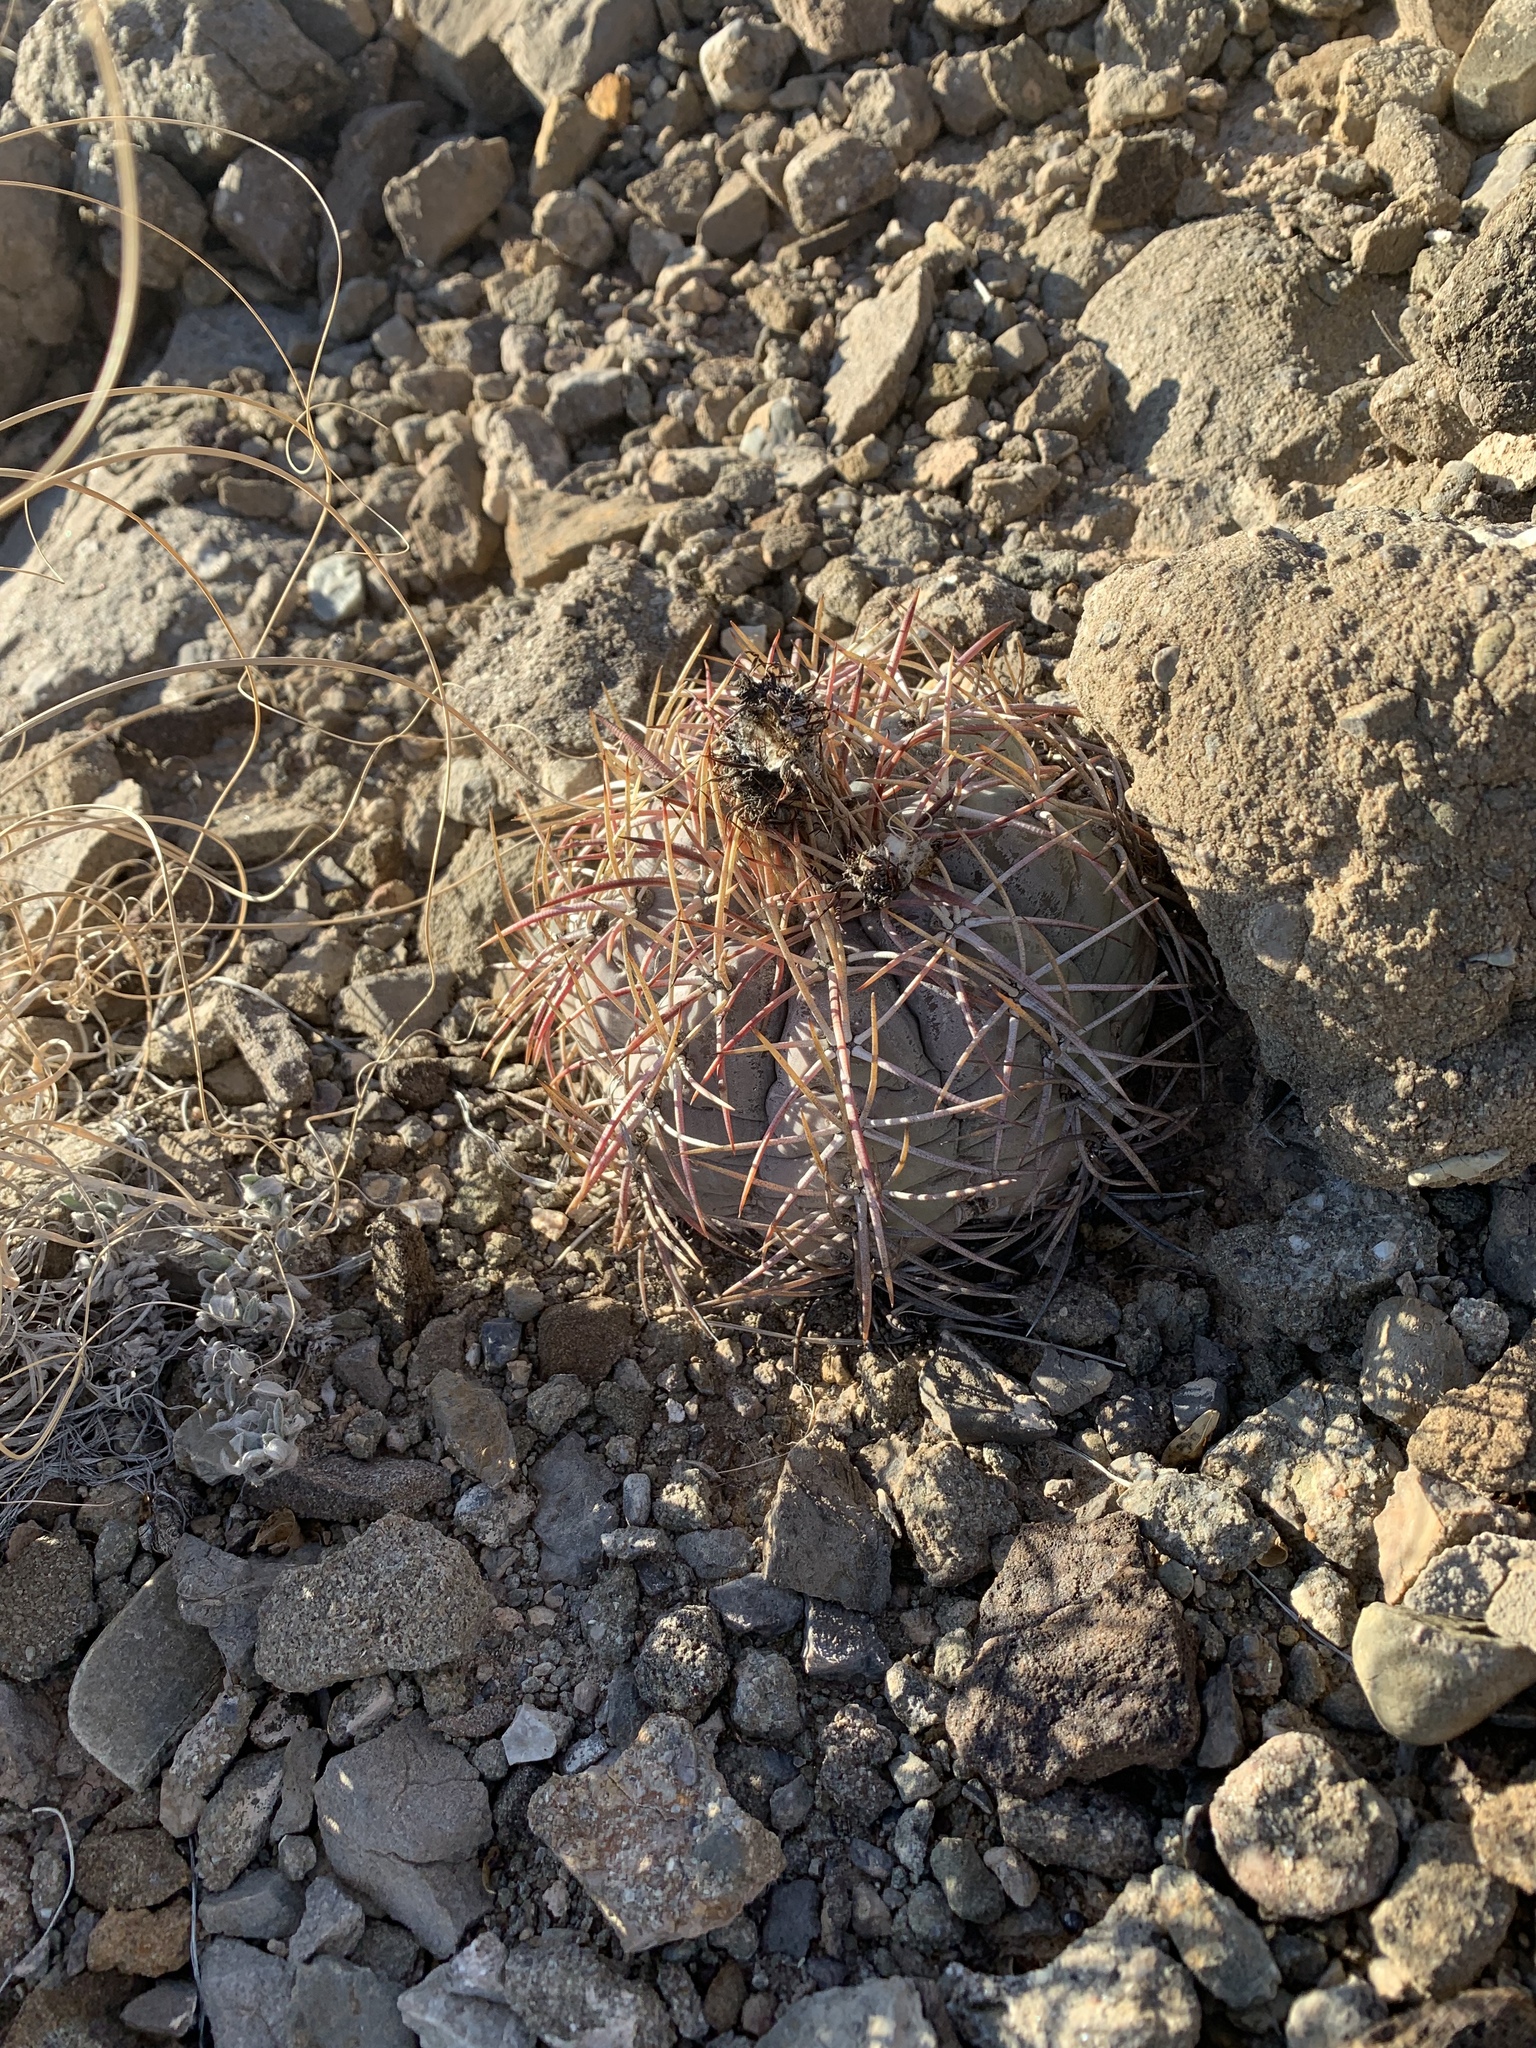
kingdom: Plantae
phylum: Tracheophyta
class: Magnoliopsida
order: Caryophyllales
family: Cactaceae
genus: Echinocactus
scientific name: Echinocactus horizonthalonius
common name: Devilshead
